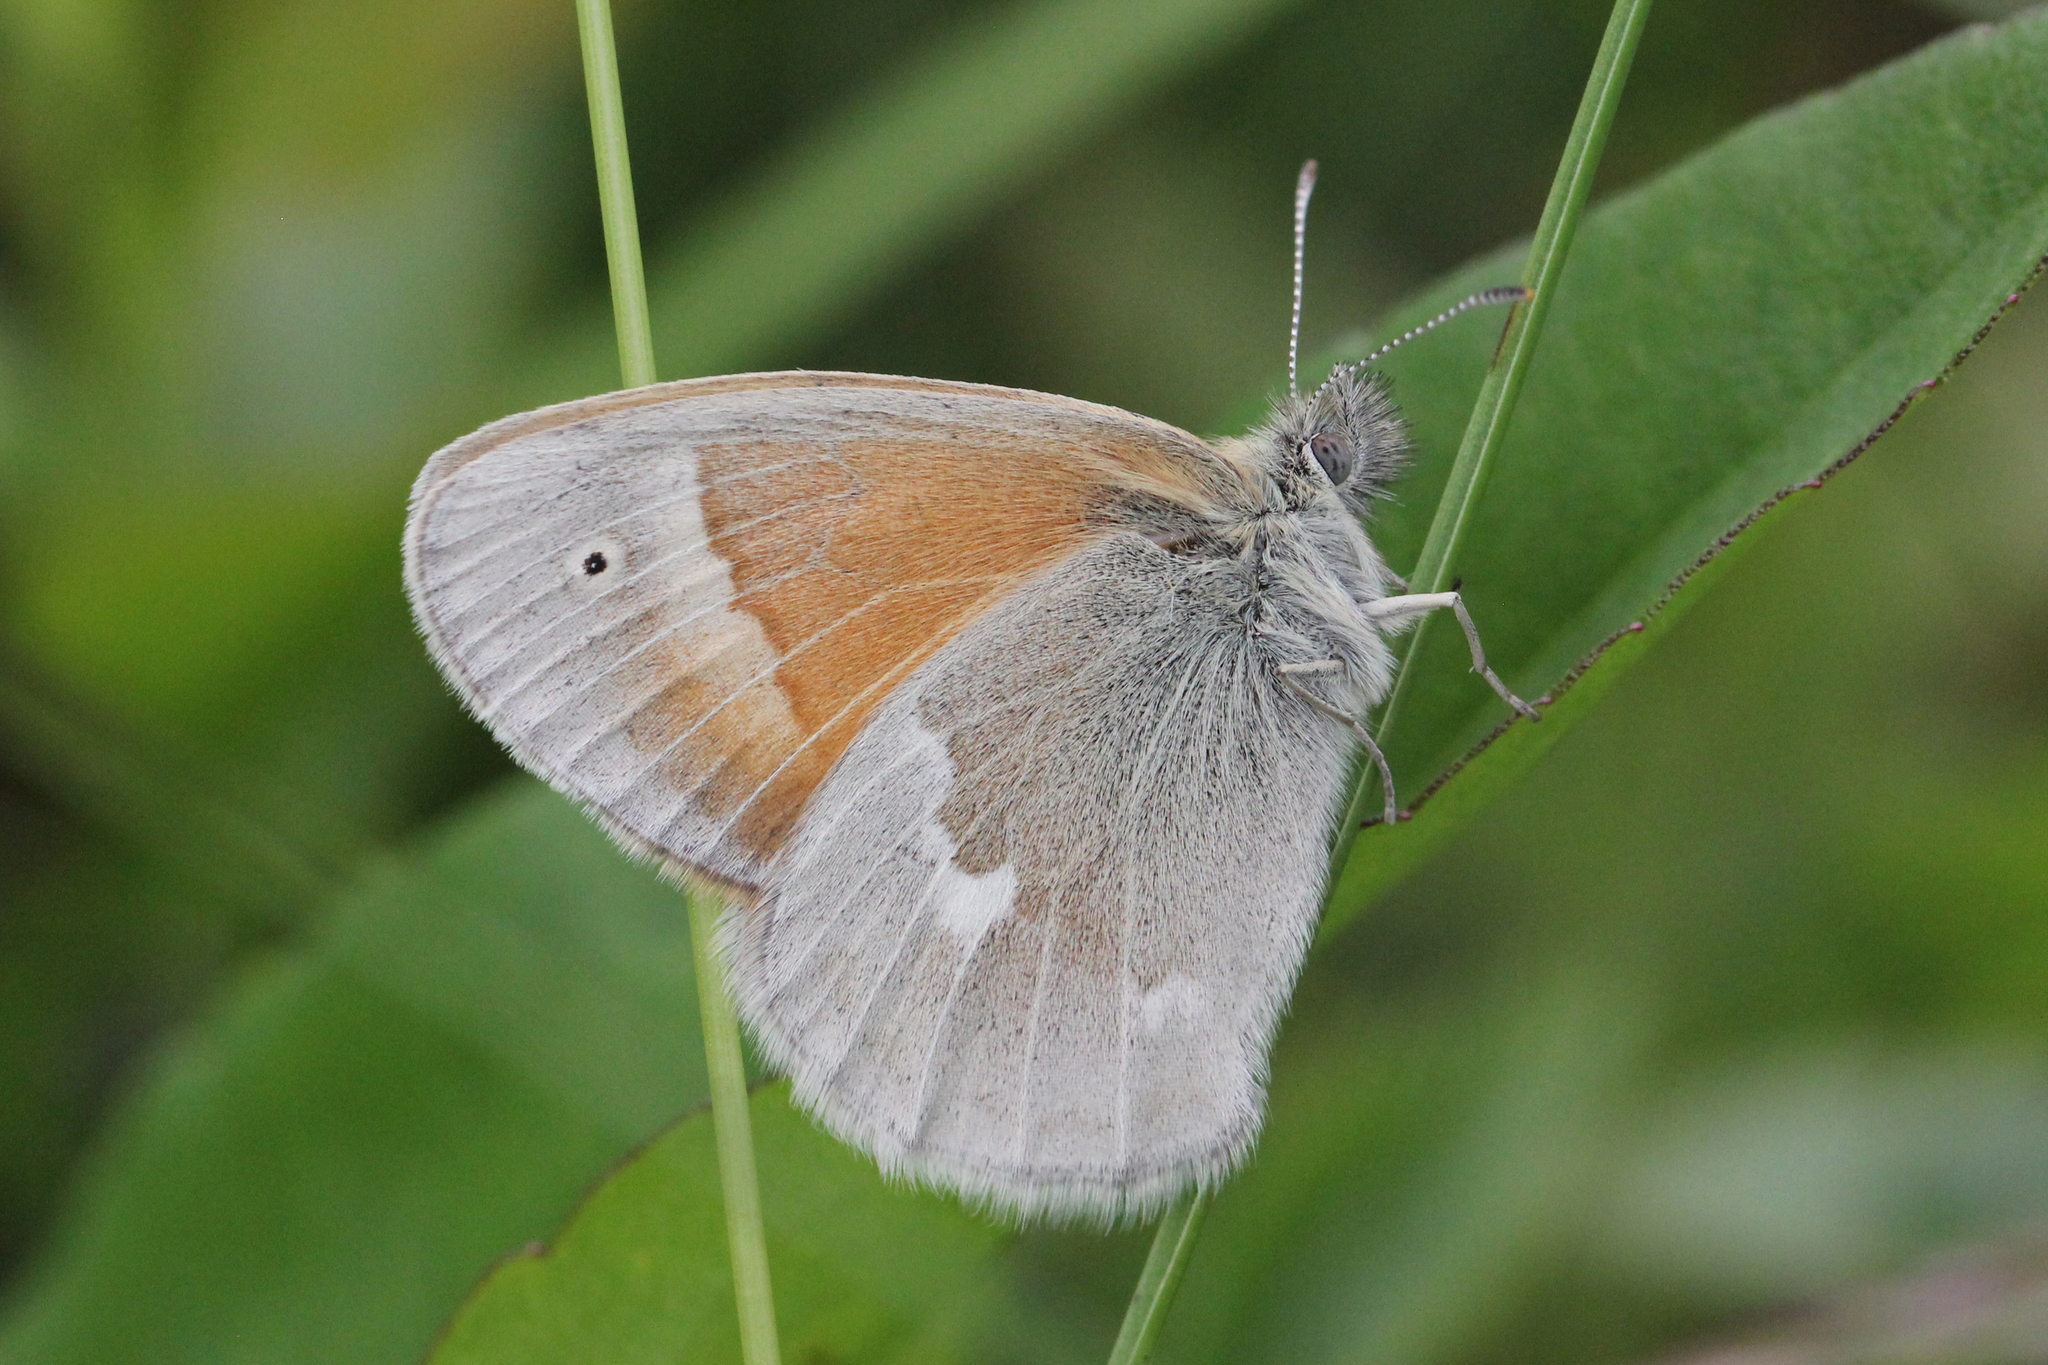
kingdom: Animalia
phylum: Arthropoda
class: Insecta
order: Lepidoptera
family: Nymphalidae
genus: Coenonympha
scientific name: Coenonympha california
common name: Common ringlet
